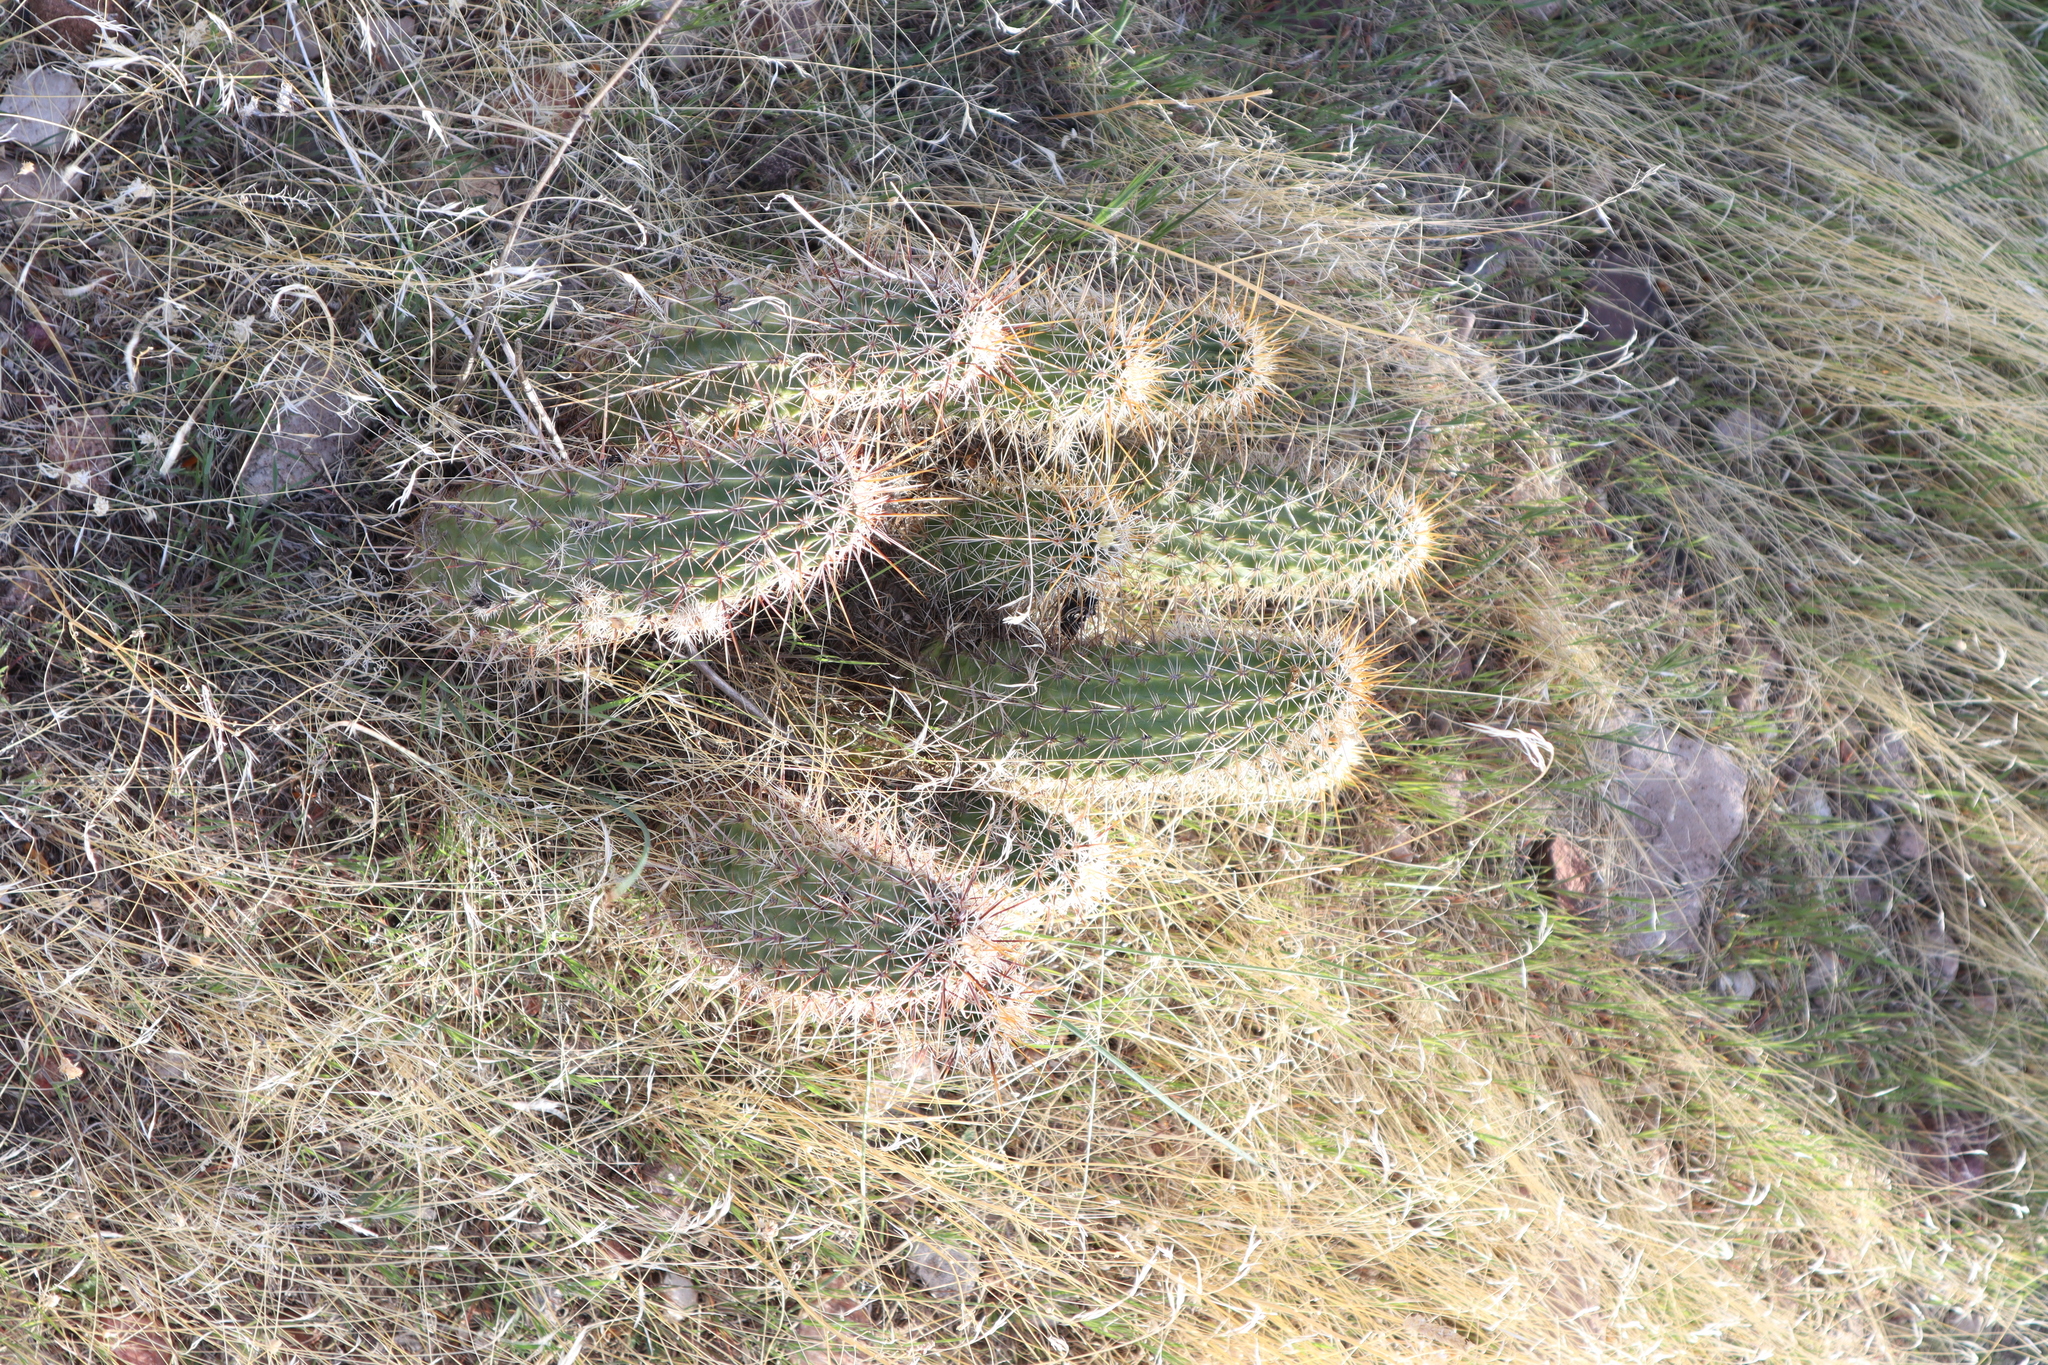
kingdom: Plantae
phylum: Tracheophyta
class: Magnoliopsida
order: Caryophyllales
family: Cactaceae
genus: Echinocereus
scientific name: Echinocereus fasciculatus
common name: Bundle hedgehog
